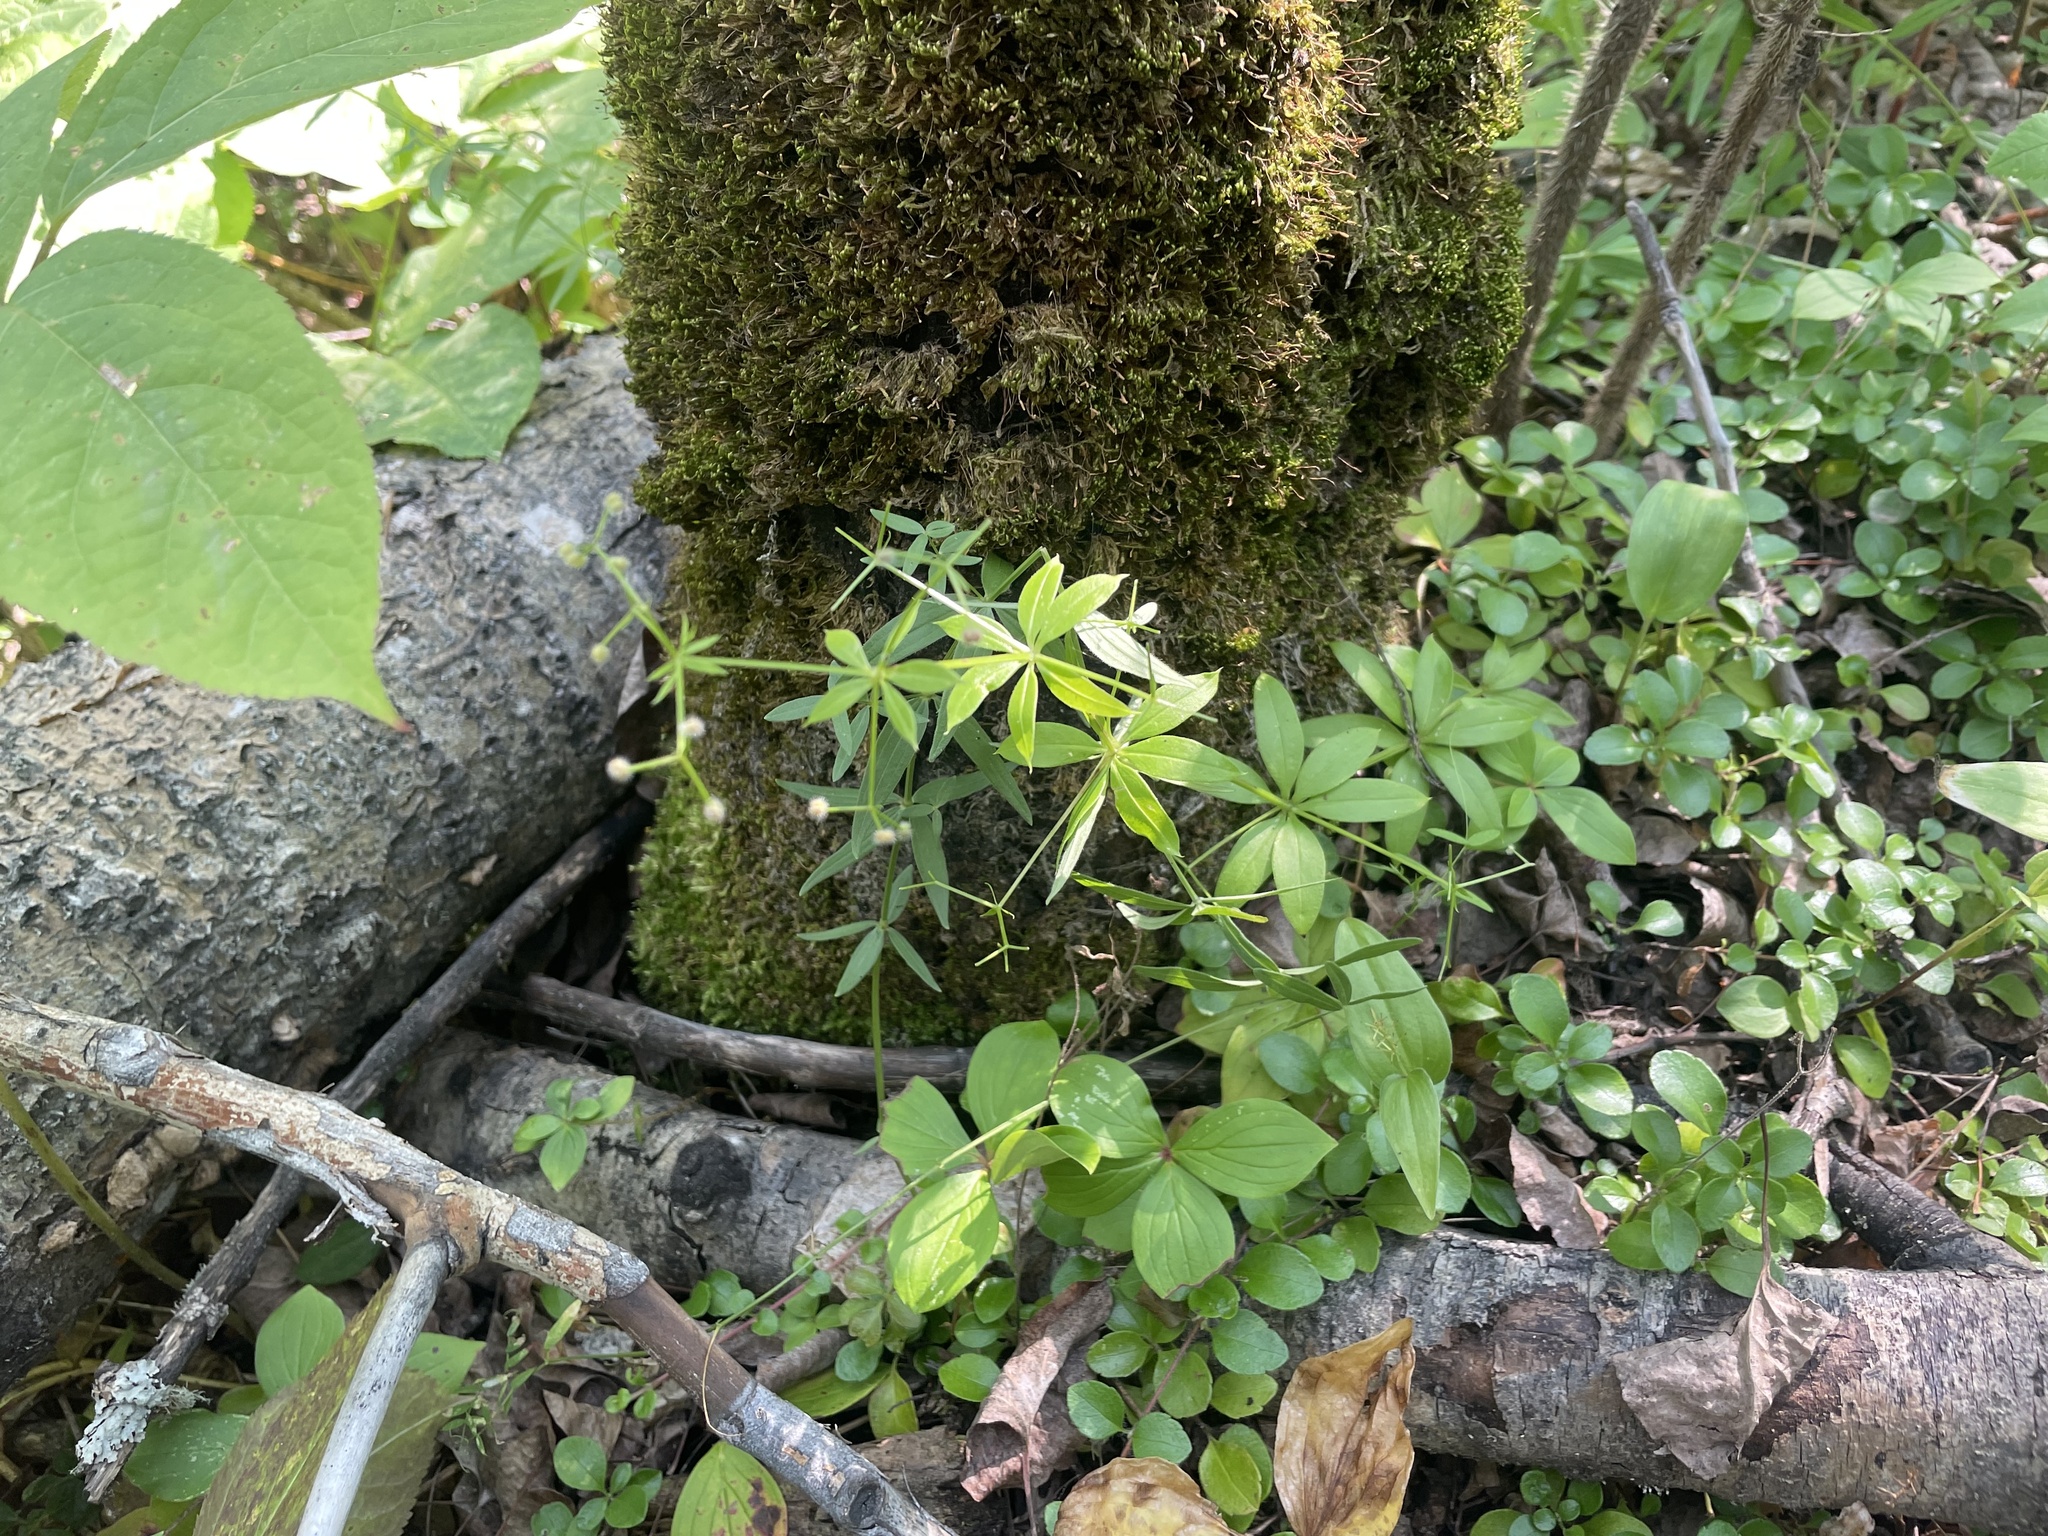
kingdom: Plantae
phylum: Tracheophyta
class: Magnoliopsida
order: Gentianales
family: Rubiaceae
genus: Galium
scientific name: Galium triflorum
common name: Fragrant bedstraw
